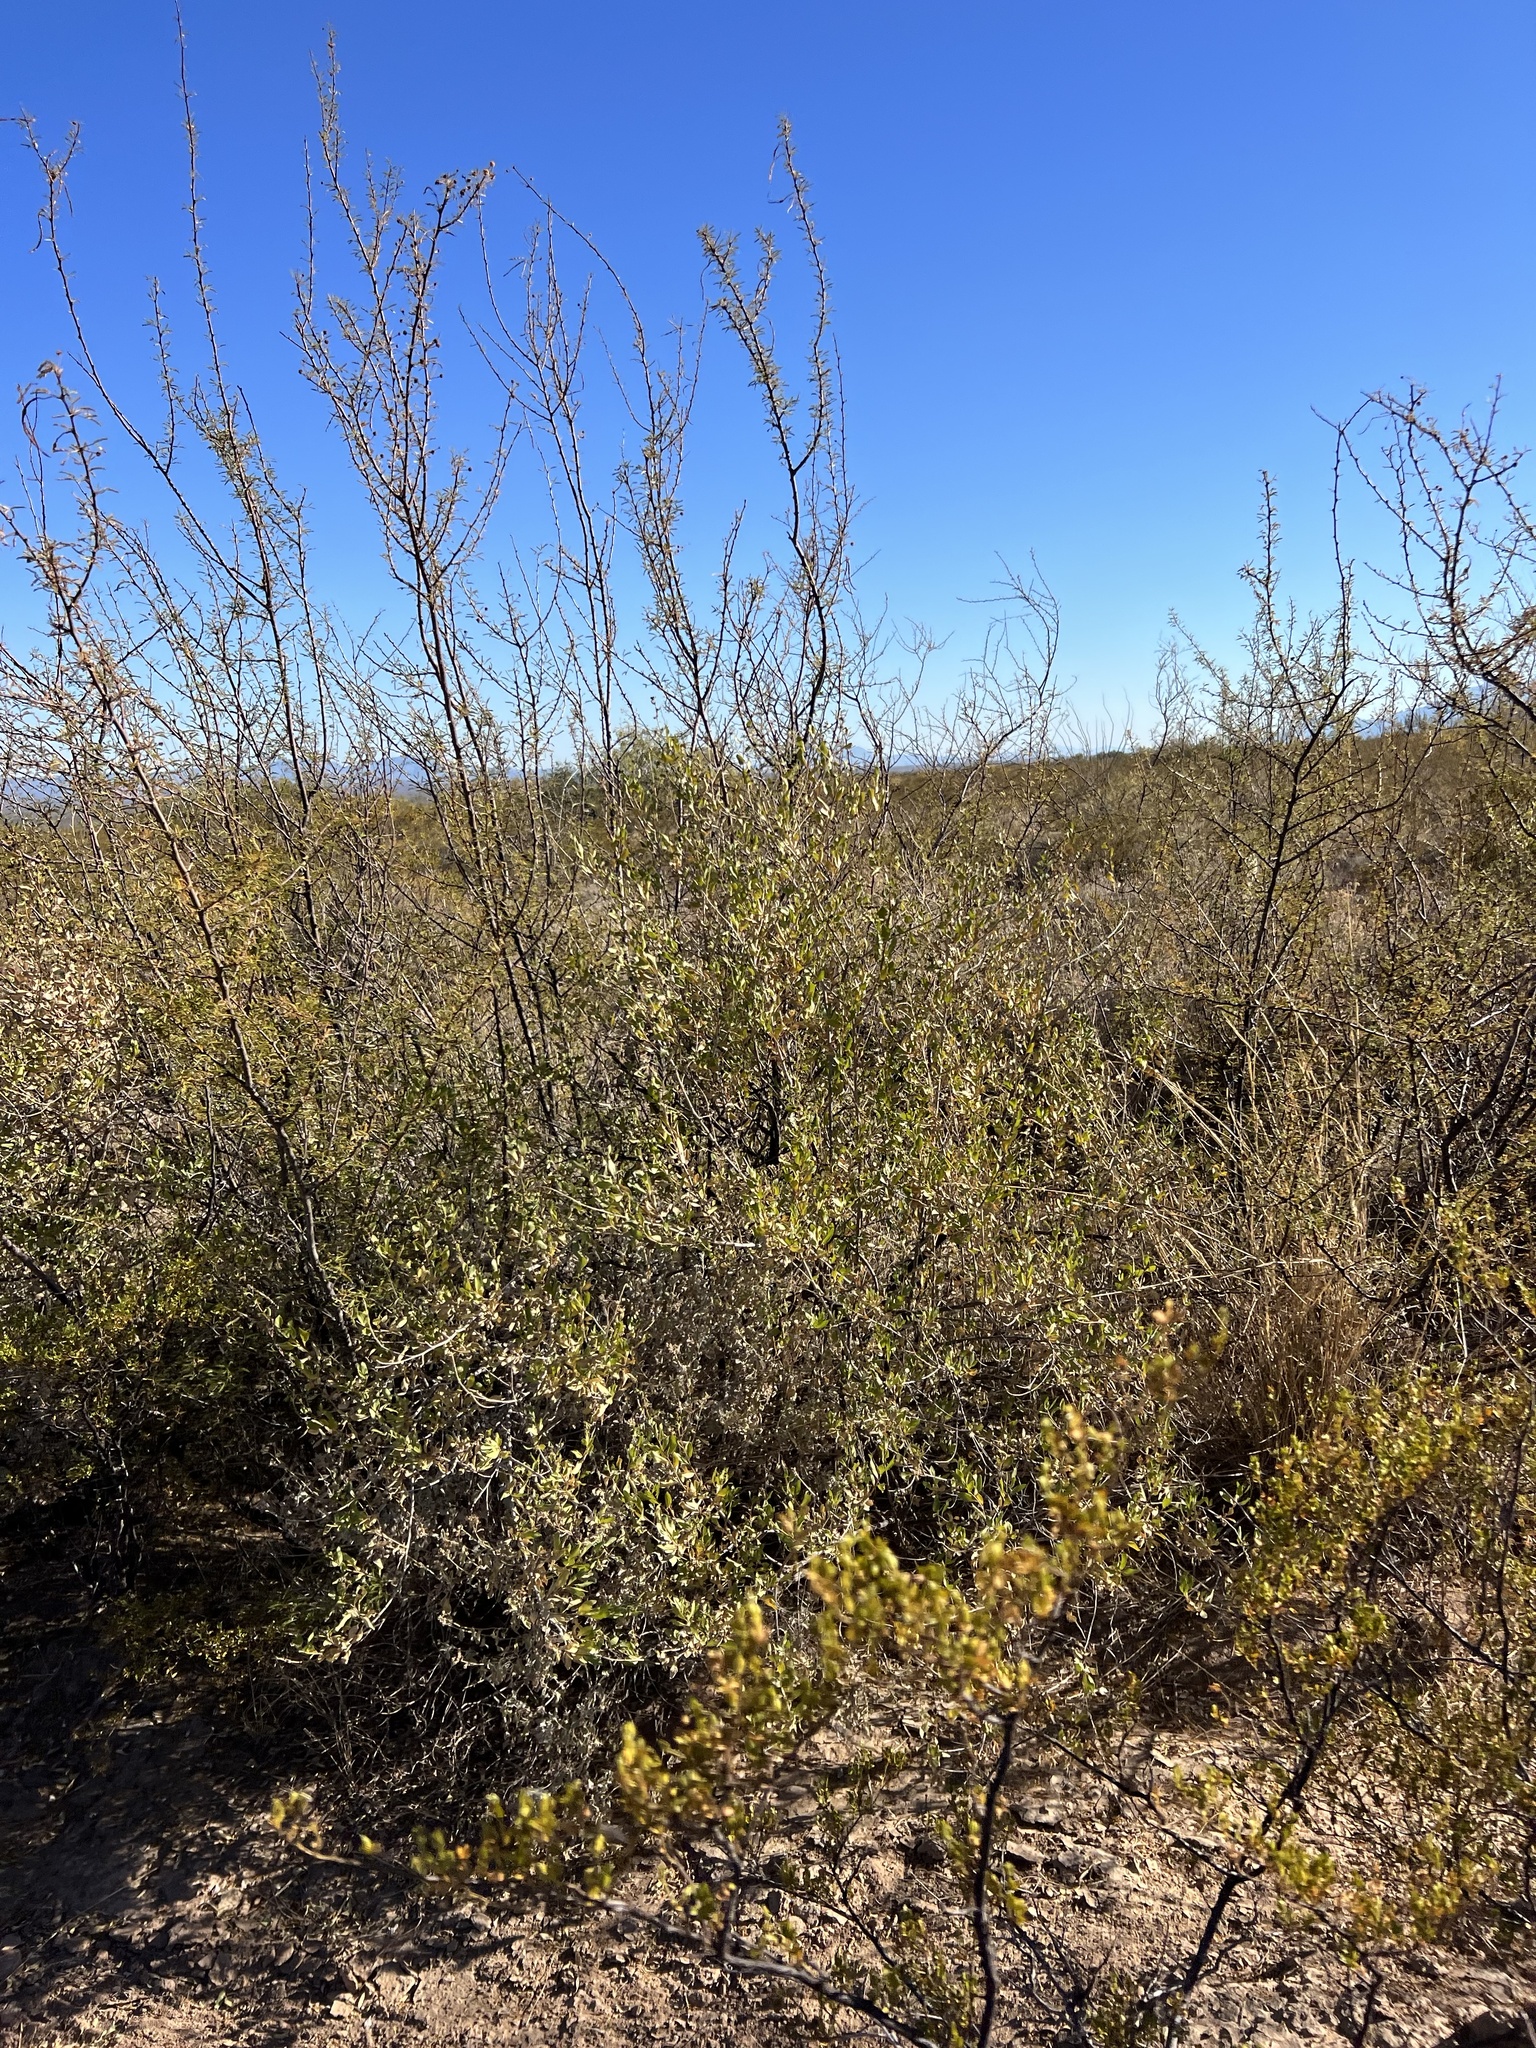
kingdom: Plantae
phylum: Tracheophyta
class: Magnoliopsida
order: Asterales
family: Asteraceae
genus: Flourensia
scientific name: Flourensia cernua
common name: Varnishbush
